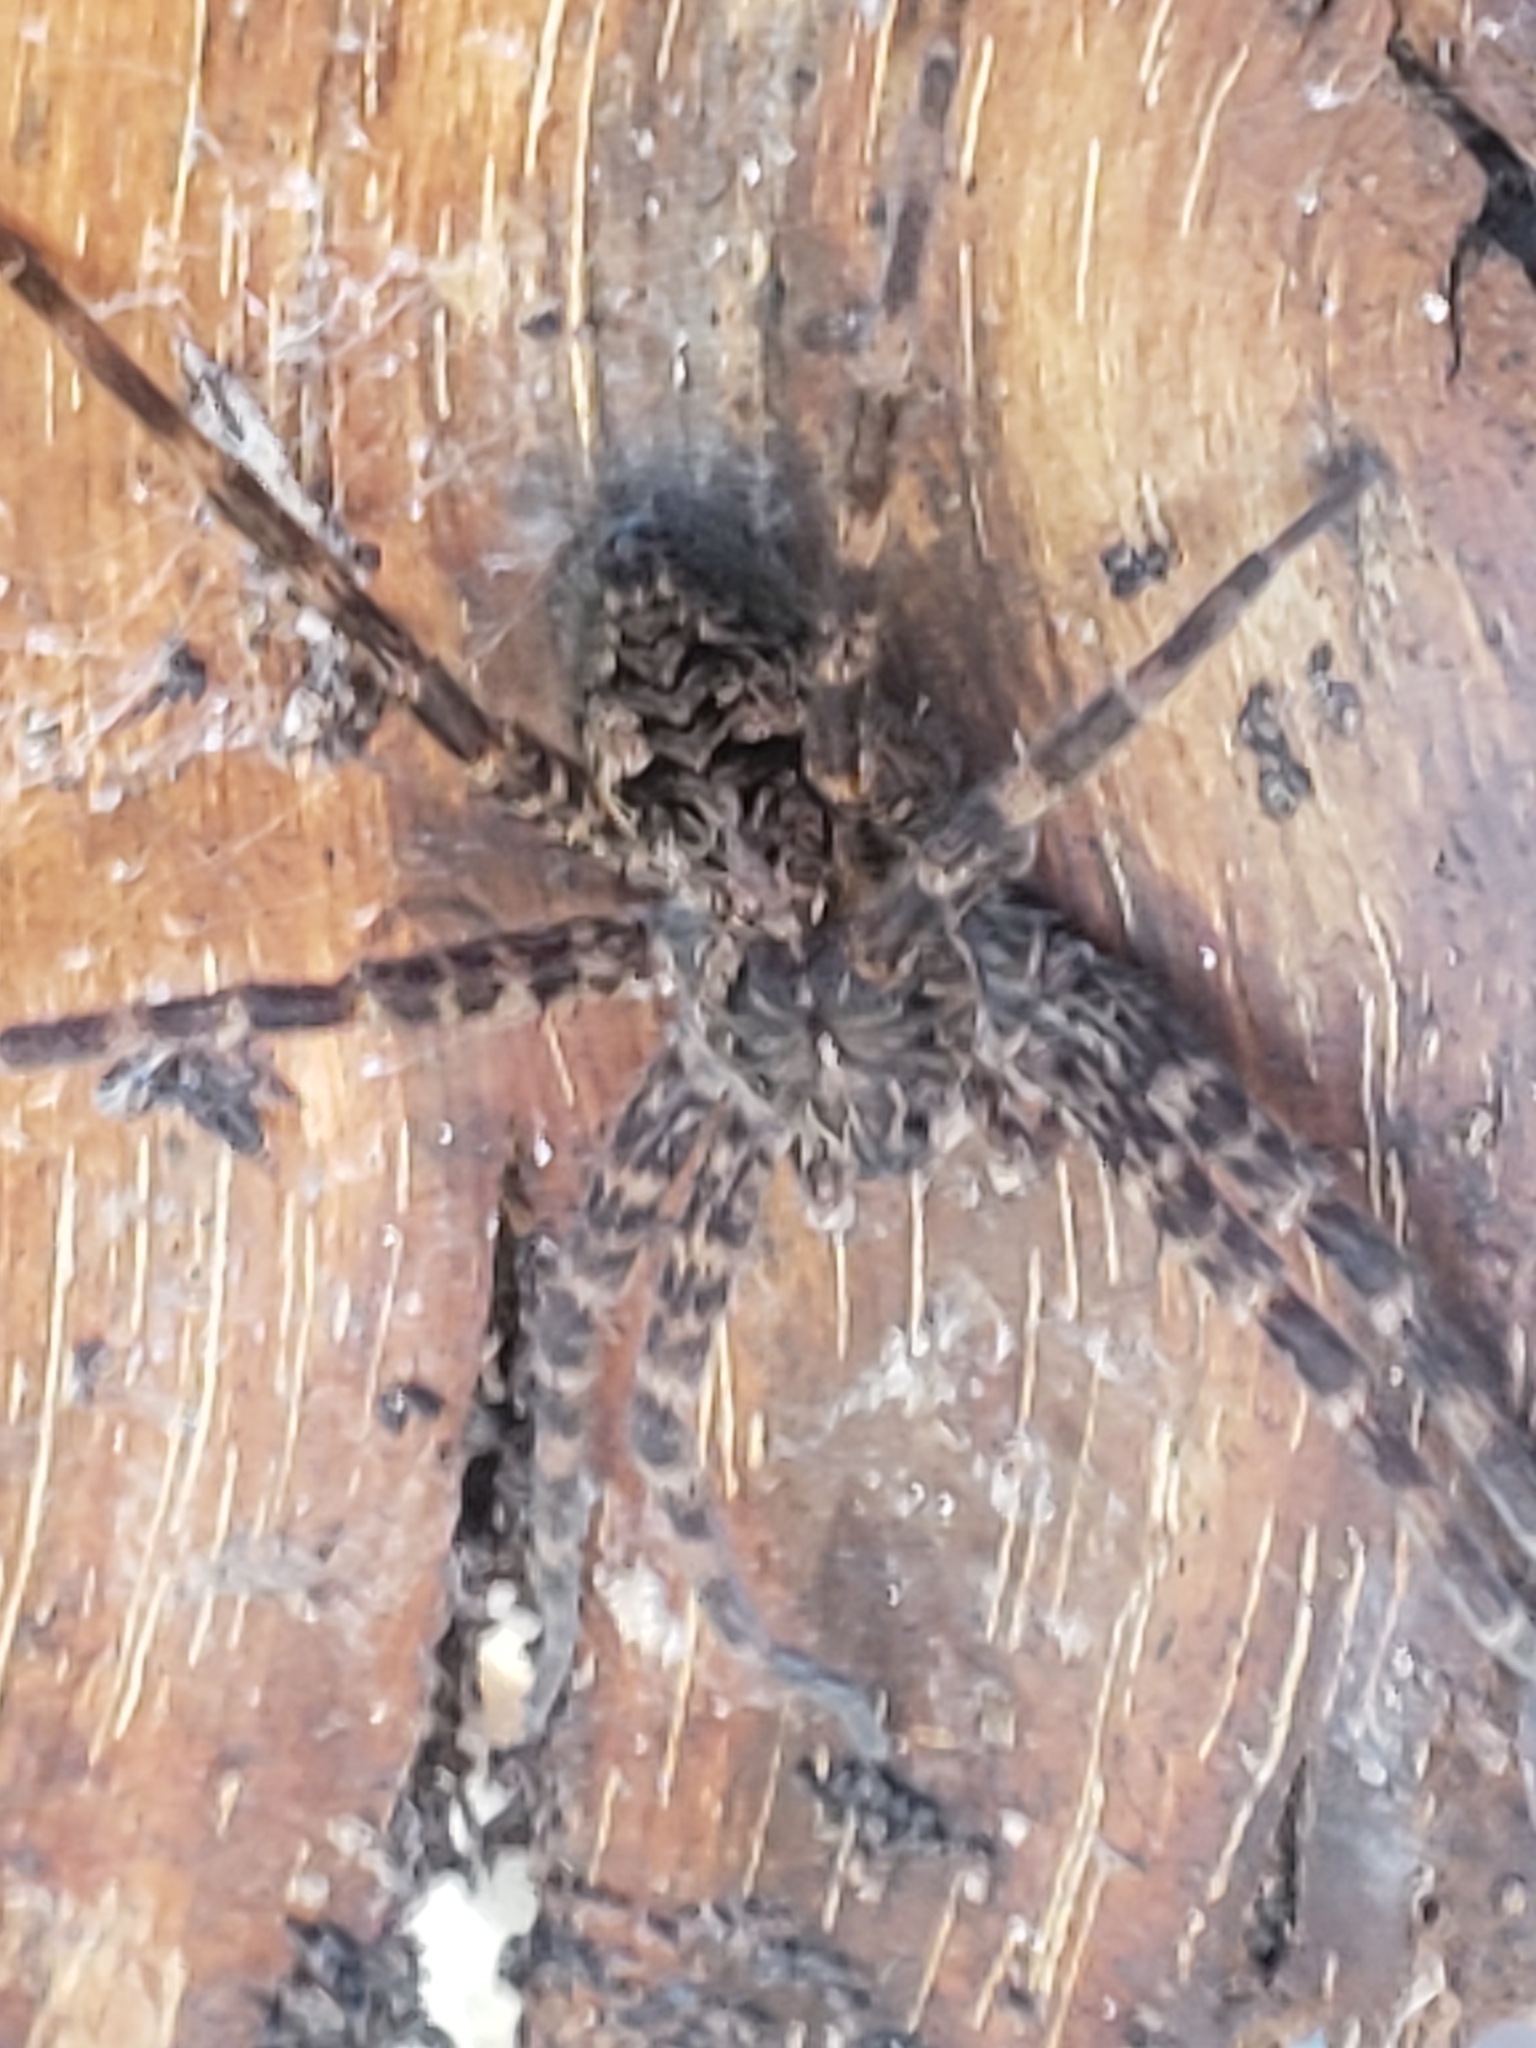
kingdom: Animalia
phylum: Arthropoda
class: Arachnida
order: Araneae
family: Pisauridae
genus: Dolomedes
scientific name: Dolomedes tenebrosus
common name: Dark fishing spider
